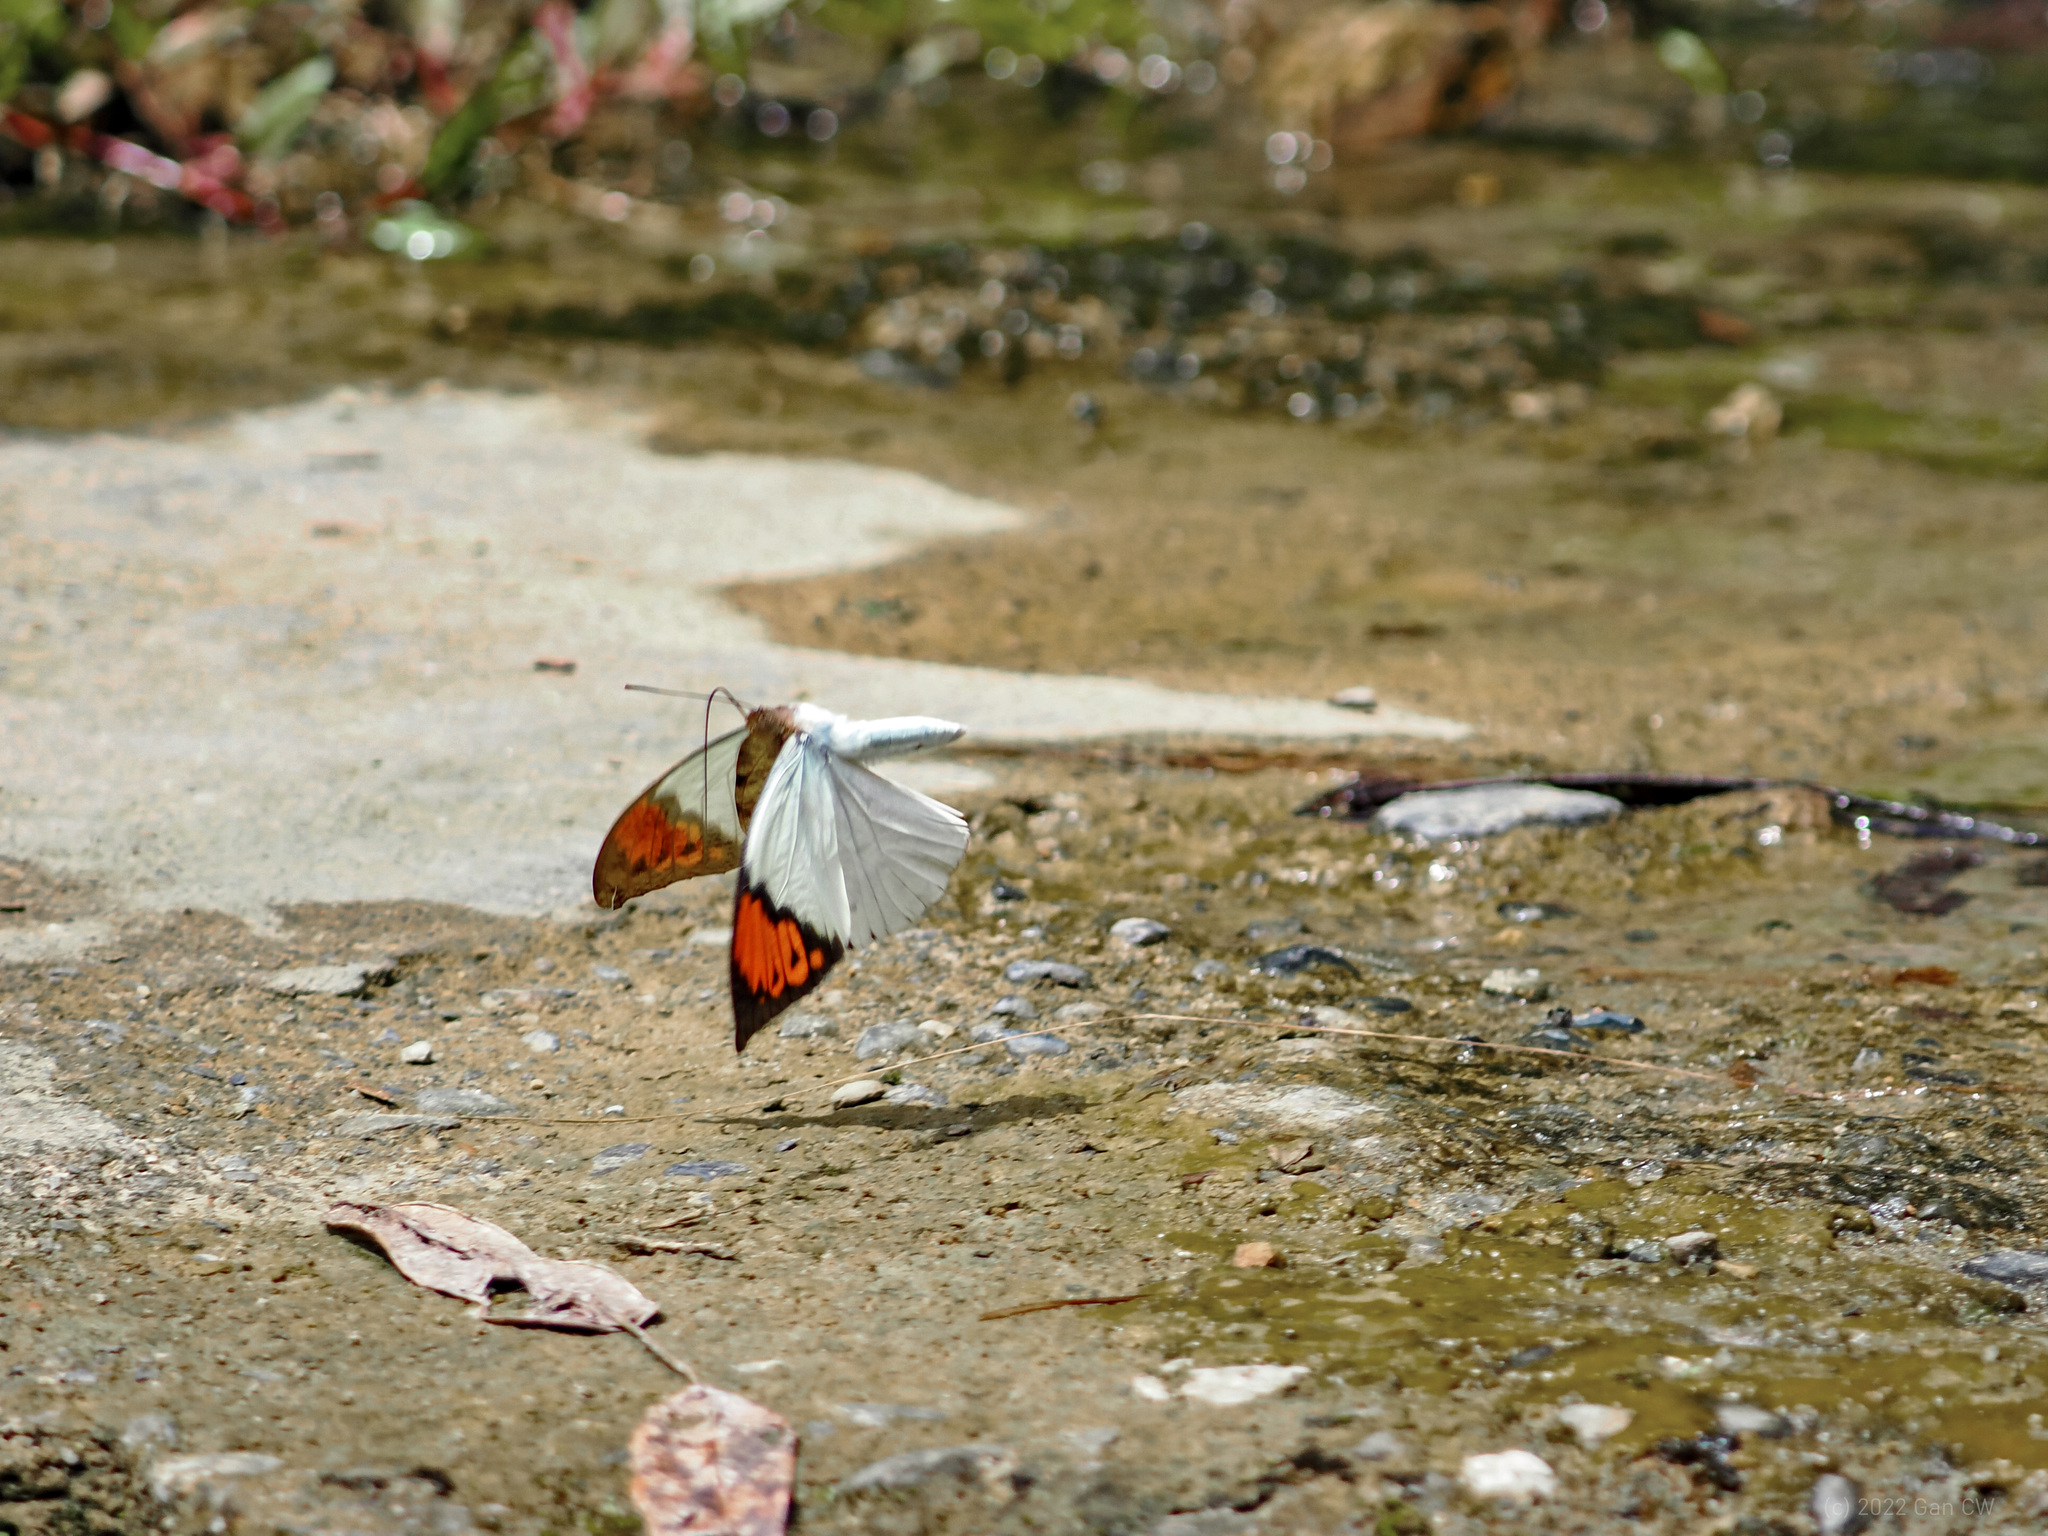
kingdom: Animalia
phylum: Arthropoda
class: Insecta
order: Lepidoptera
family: Pieridae
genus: Hebomoia
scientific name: Hebomoia glaucippe
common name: Great orange tip
